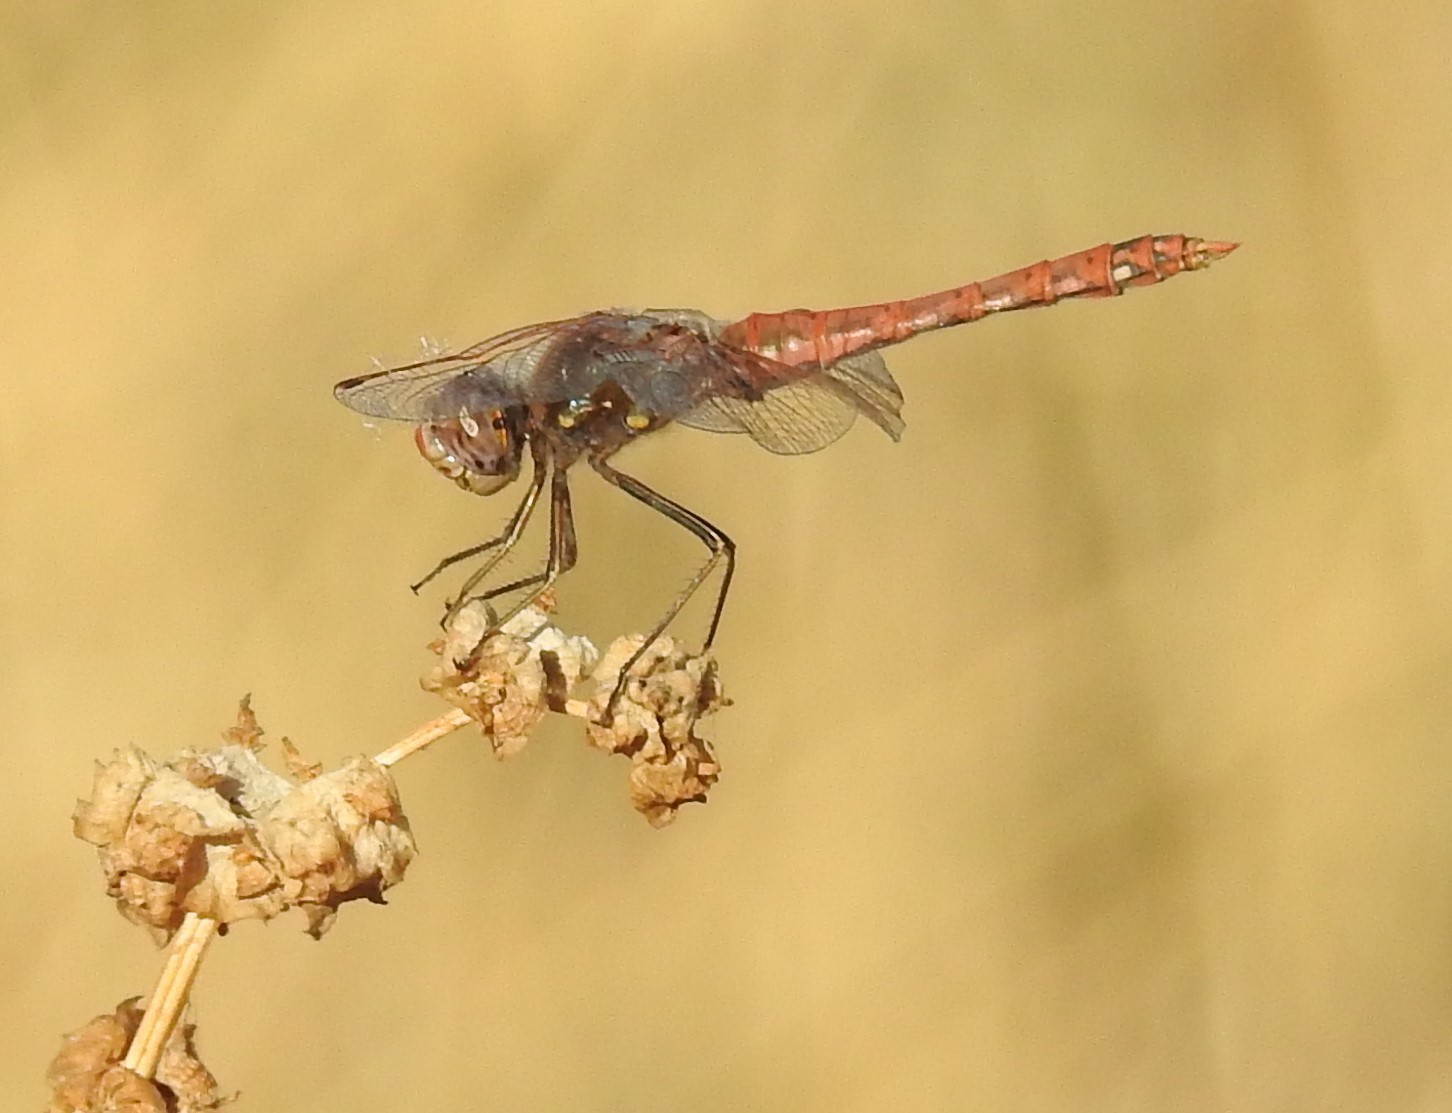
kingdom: Animalia
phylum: Arthropoda
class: Insecta
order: Odonata
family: Libellulidae
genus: Sympetrum
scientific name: Sympetrum corruptum
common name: Variegated meadowhawk
